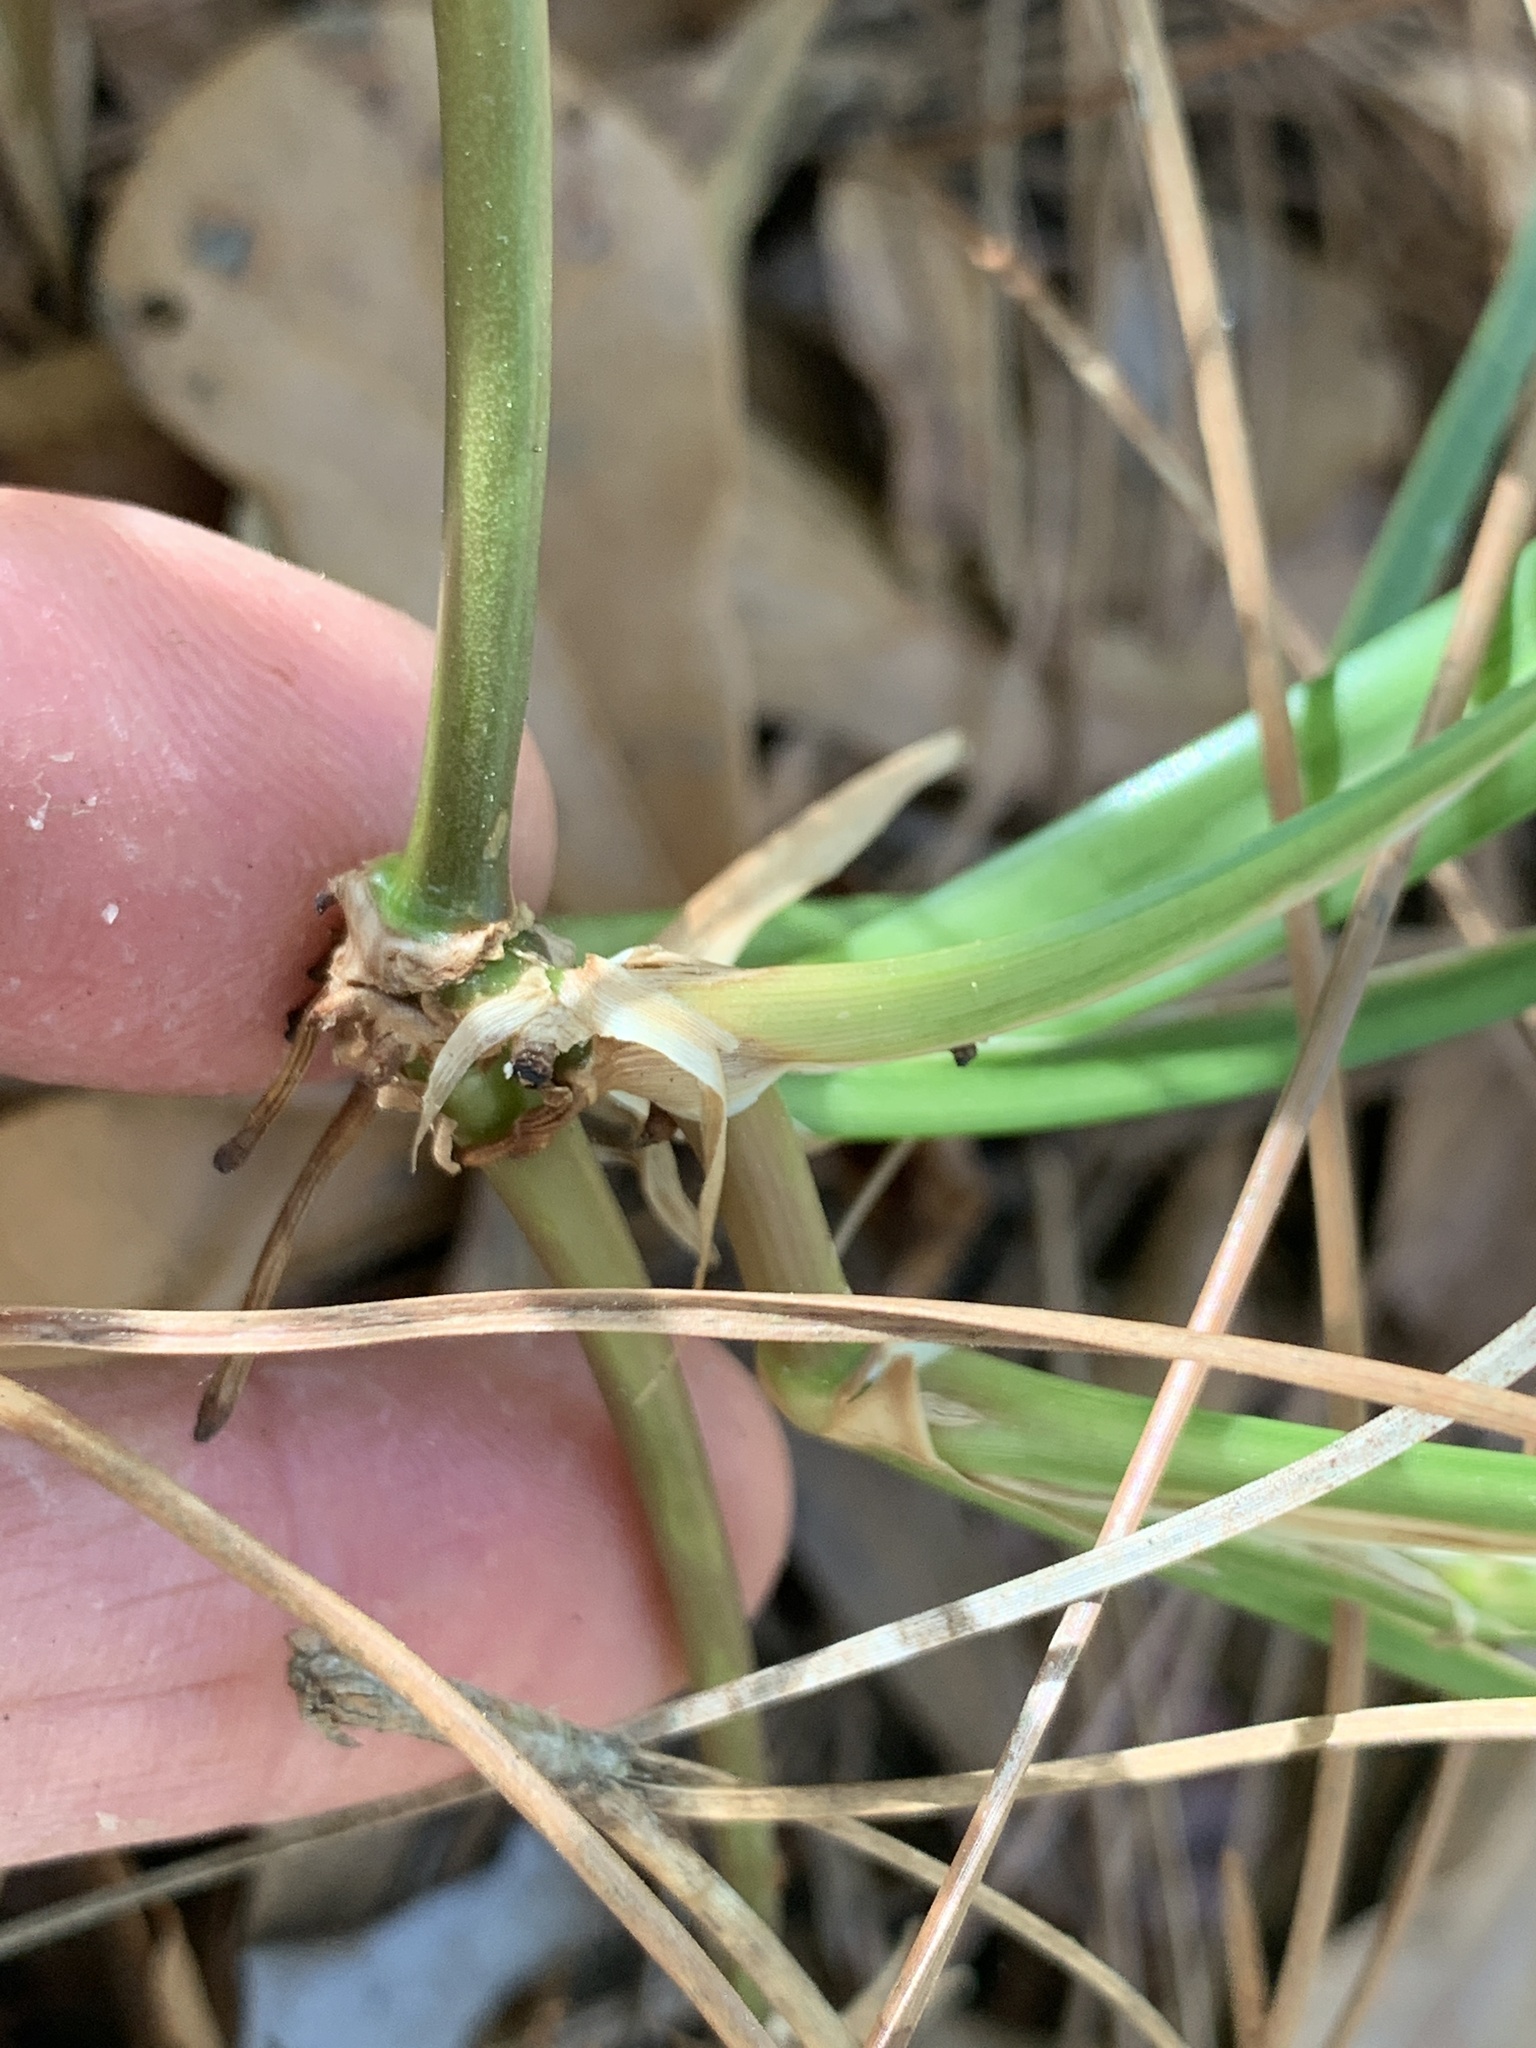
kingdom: Plantae
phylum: Tracheophyta
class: Liliopsida
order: Poales
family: Poaceae
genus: Stenotaphrum
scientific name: Stenotaphrum secundatum
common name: St. augustine grass
